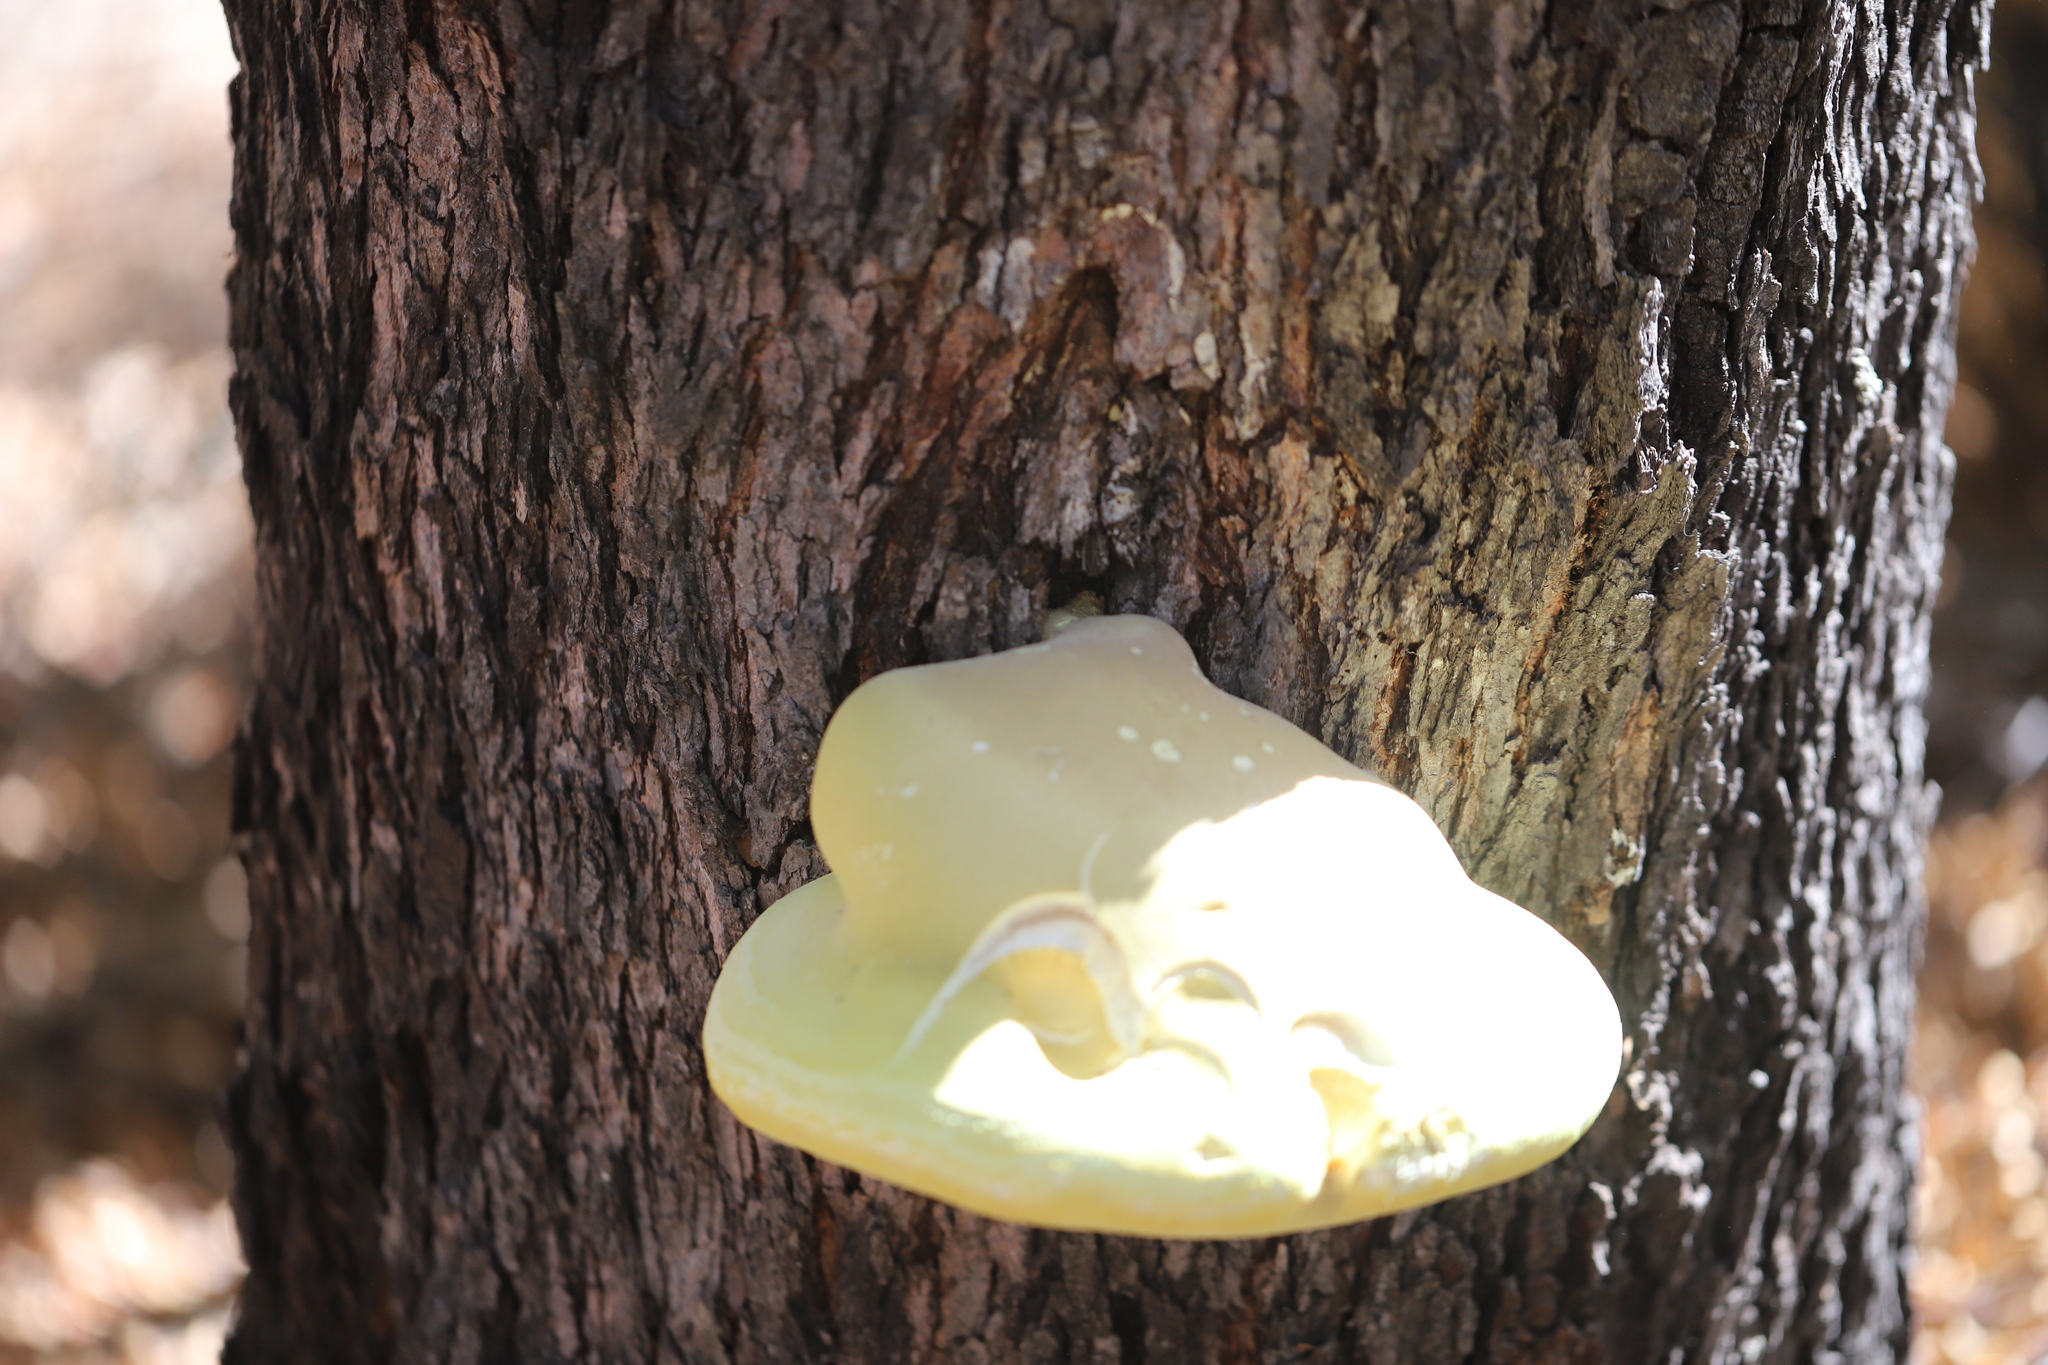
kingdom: Fungi
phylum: Basidiomycota
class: Agaricomycetes
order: Polyporales
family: Laetiporaceae
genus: Laetiporus
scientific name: Laetiporus portentosus
